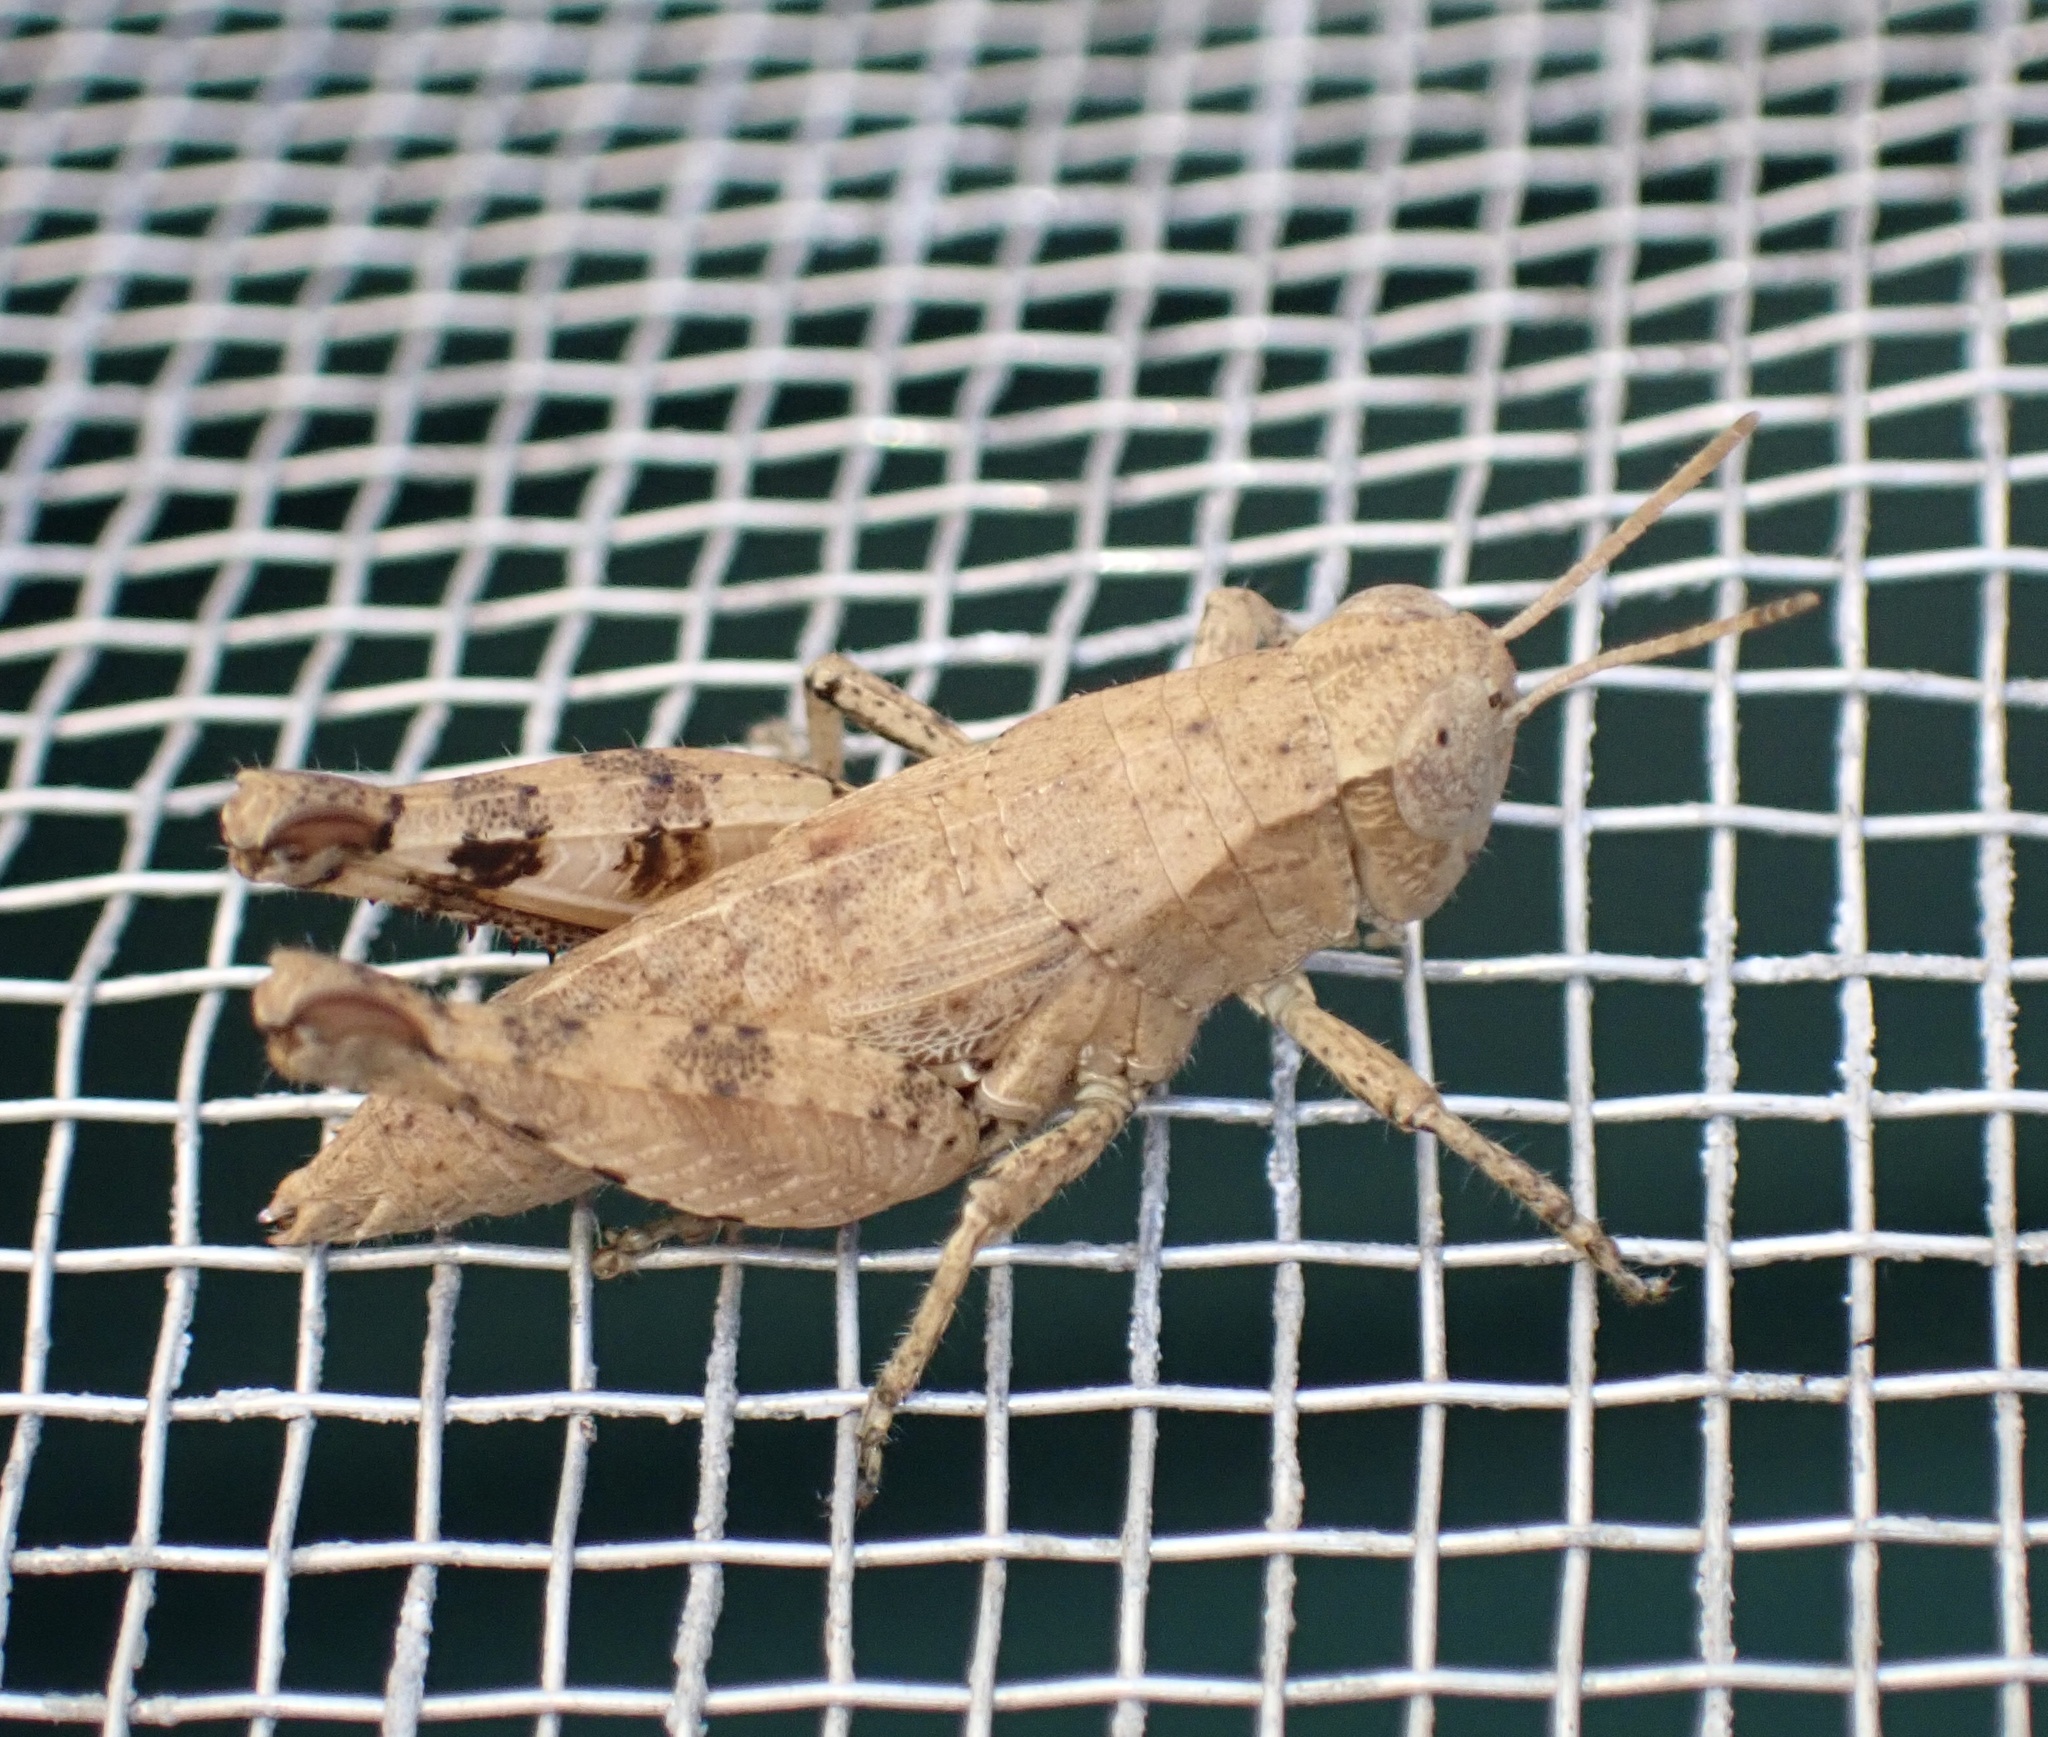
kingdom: Animalia
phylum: Arthropoda
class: Insecta
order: Orthoptera
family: Acrididae
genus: Pezotettix
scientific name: Pezotettix giornae
